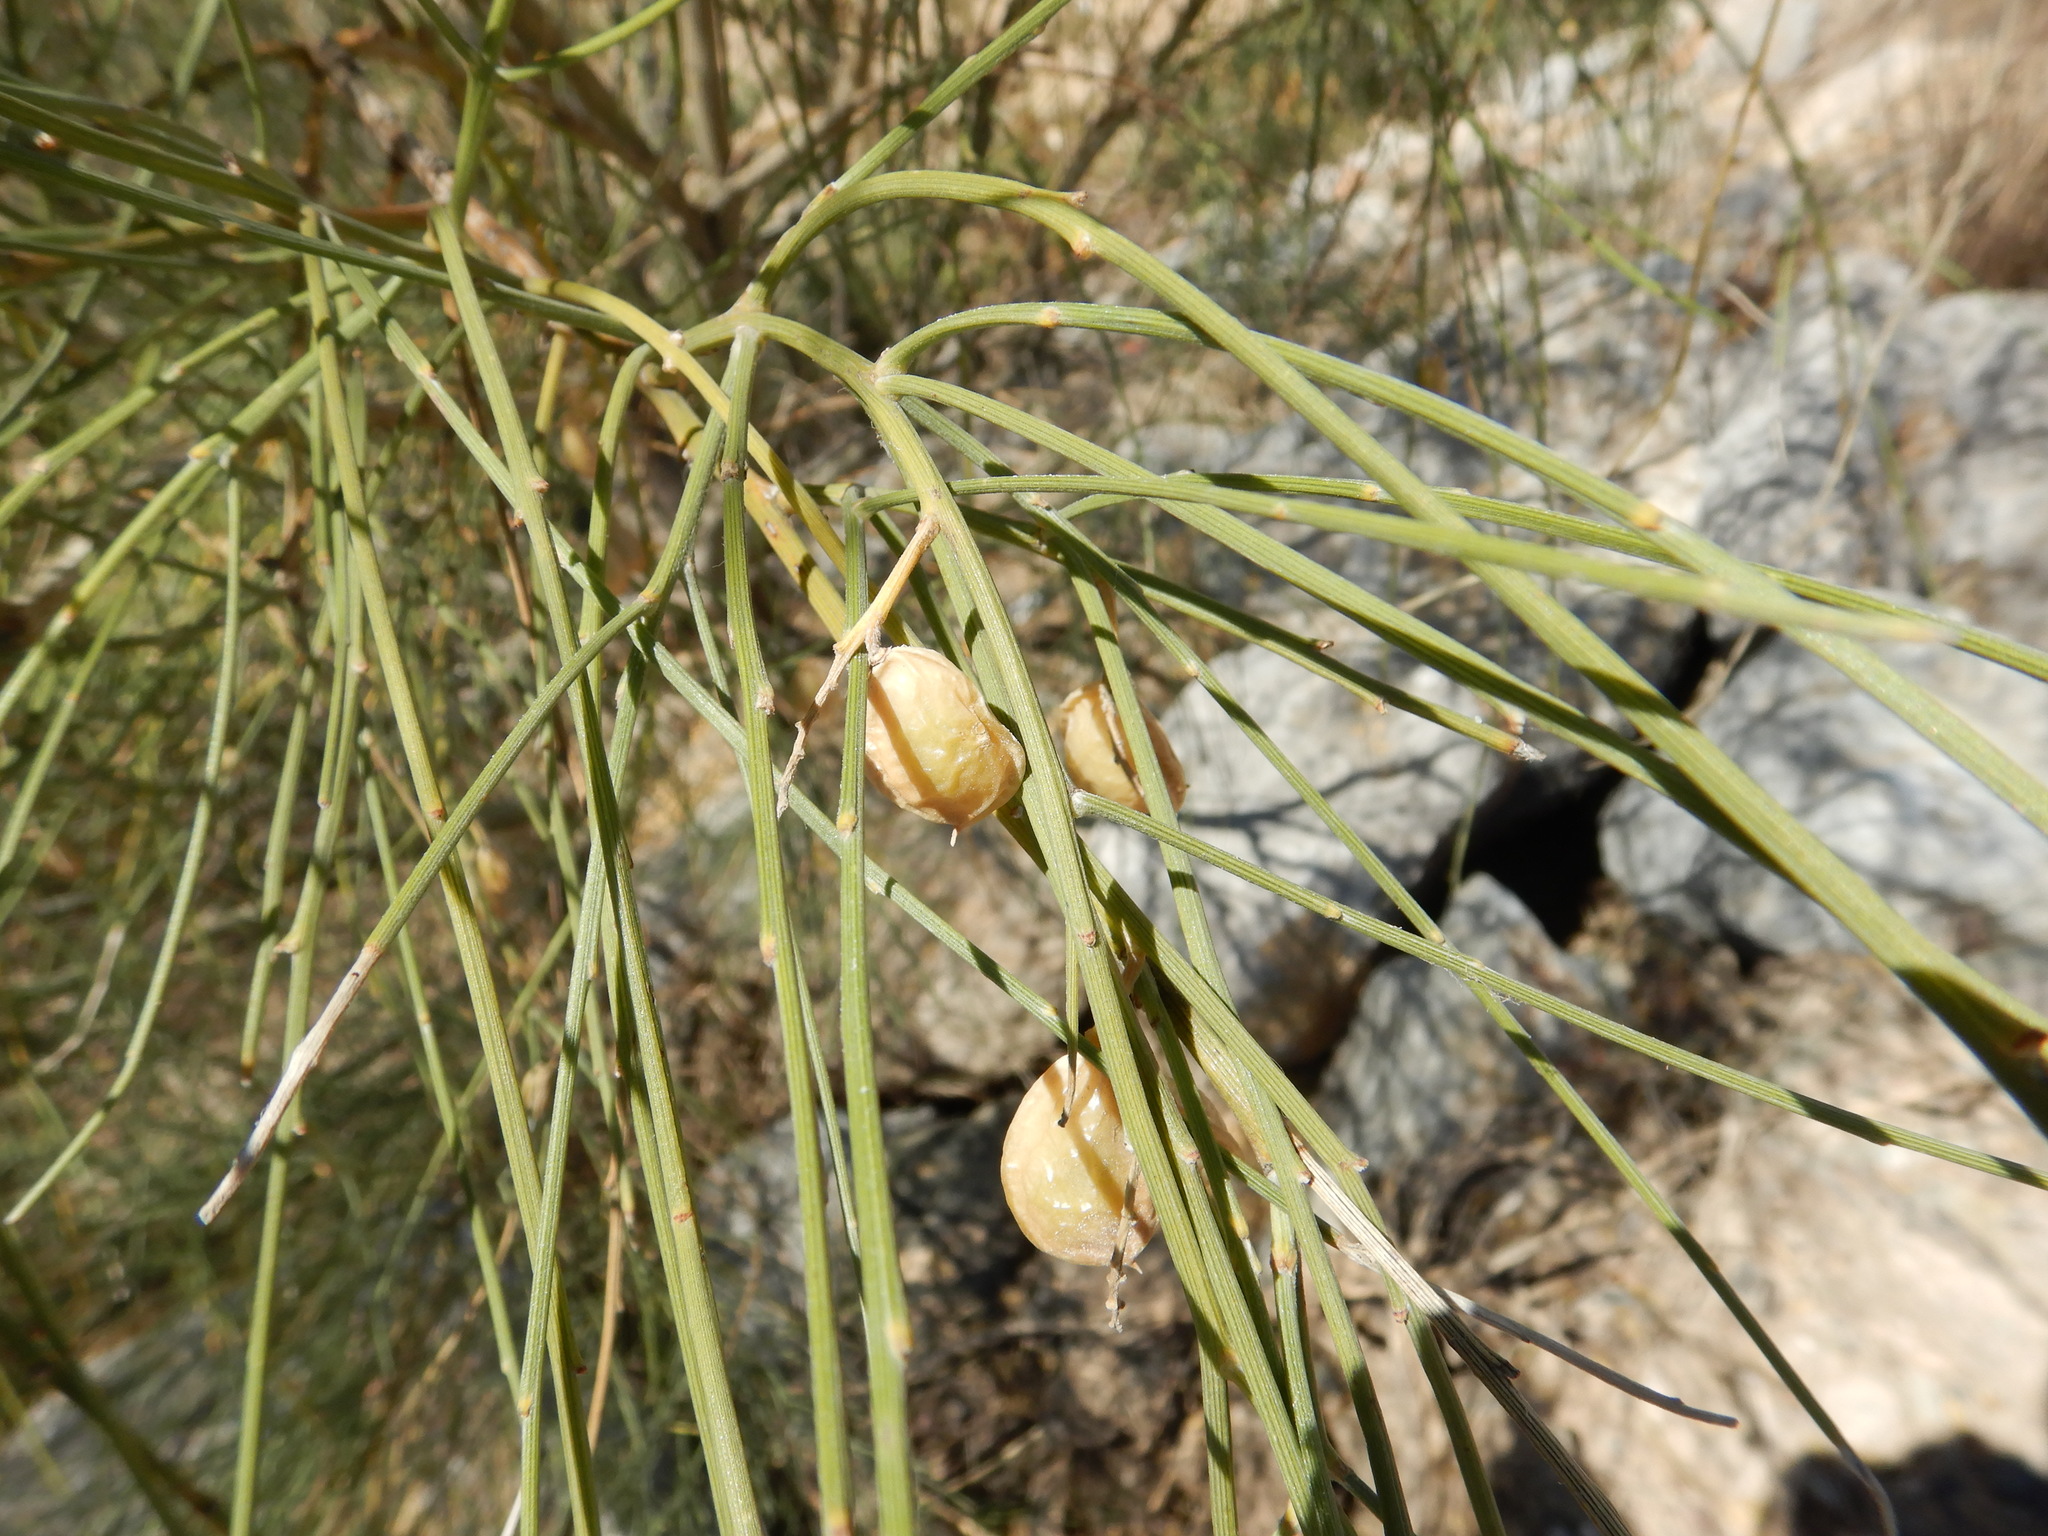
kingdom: Plantae
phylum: Tracheophyta
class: Magnoliopsida
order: Fabales
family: Fabaceae
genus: Retama
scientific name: Retama monosperma
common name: Bridal broom
